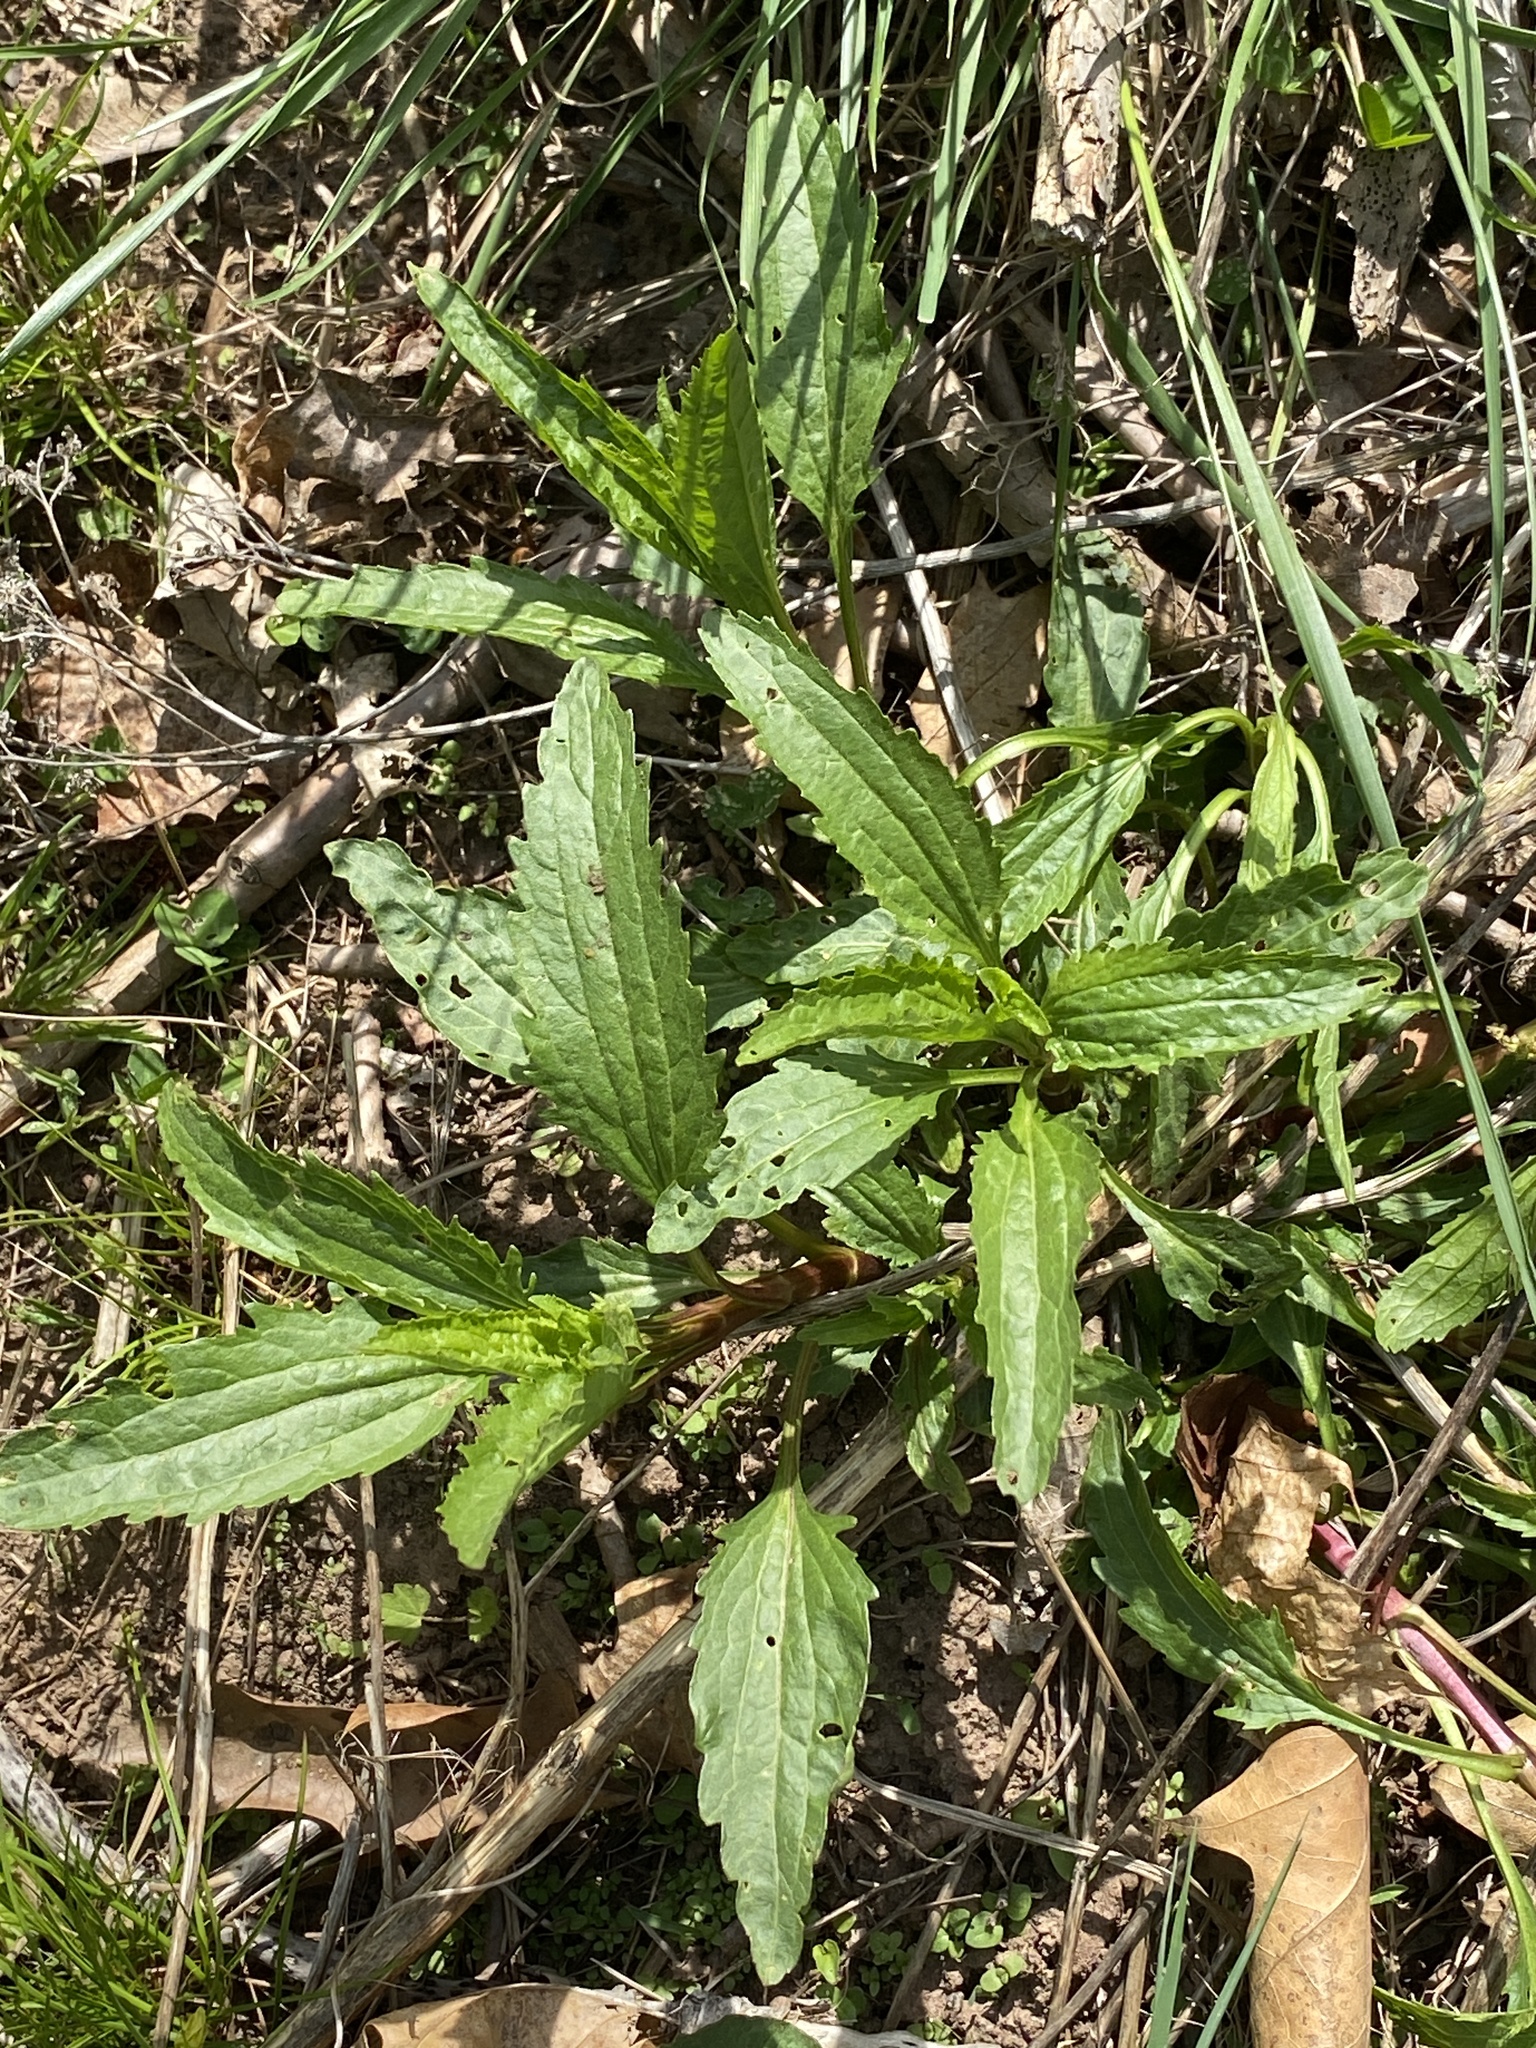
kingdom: Plantae
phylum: Tracheophyta
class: Magnoliopsida
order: Asterales
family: Asteraceae
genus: Eupatorium
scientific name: Eupatorium serotinum
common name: Late boneset
